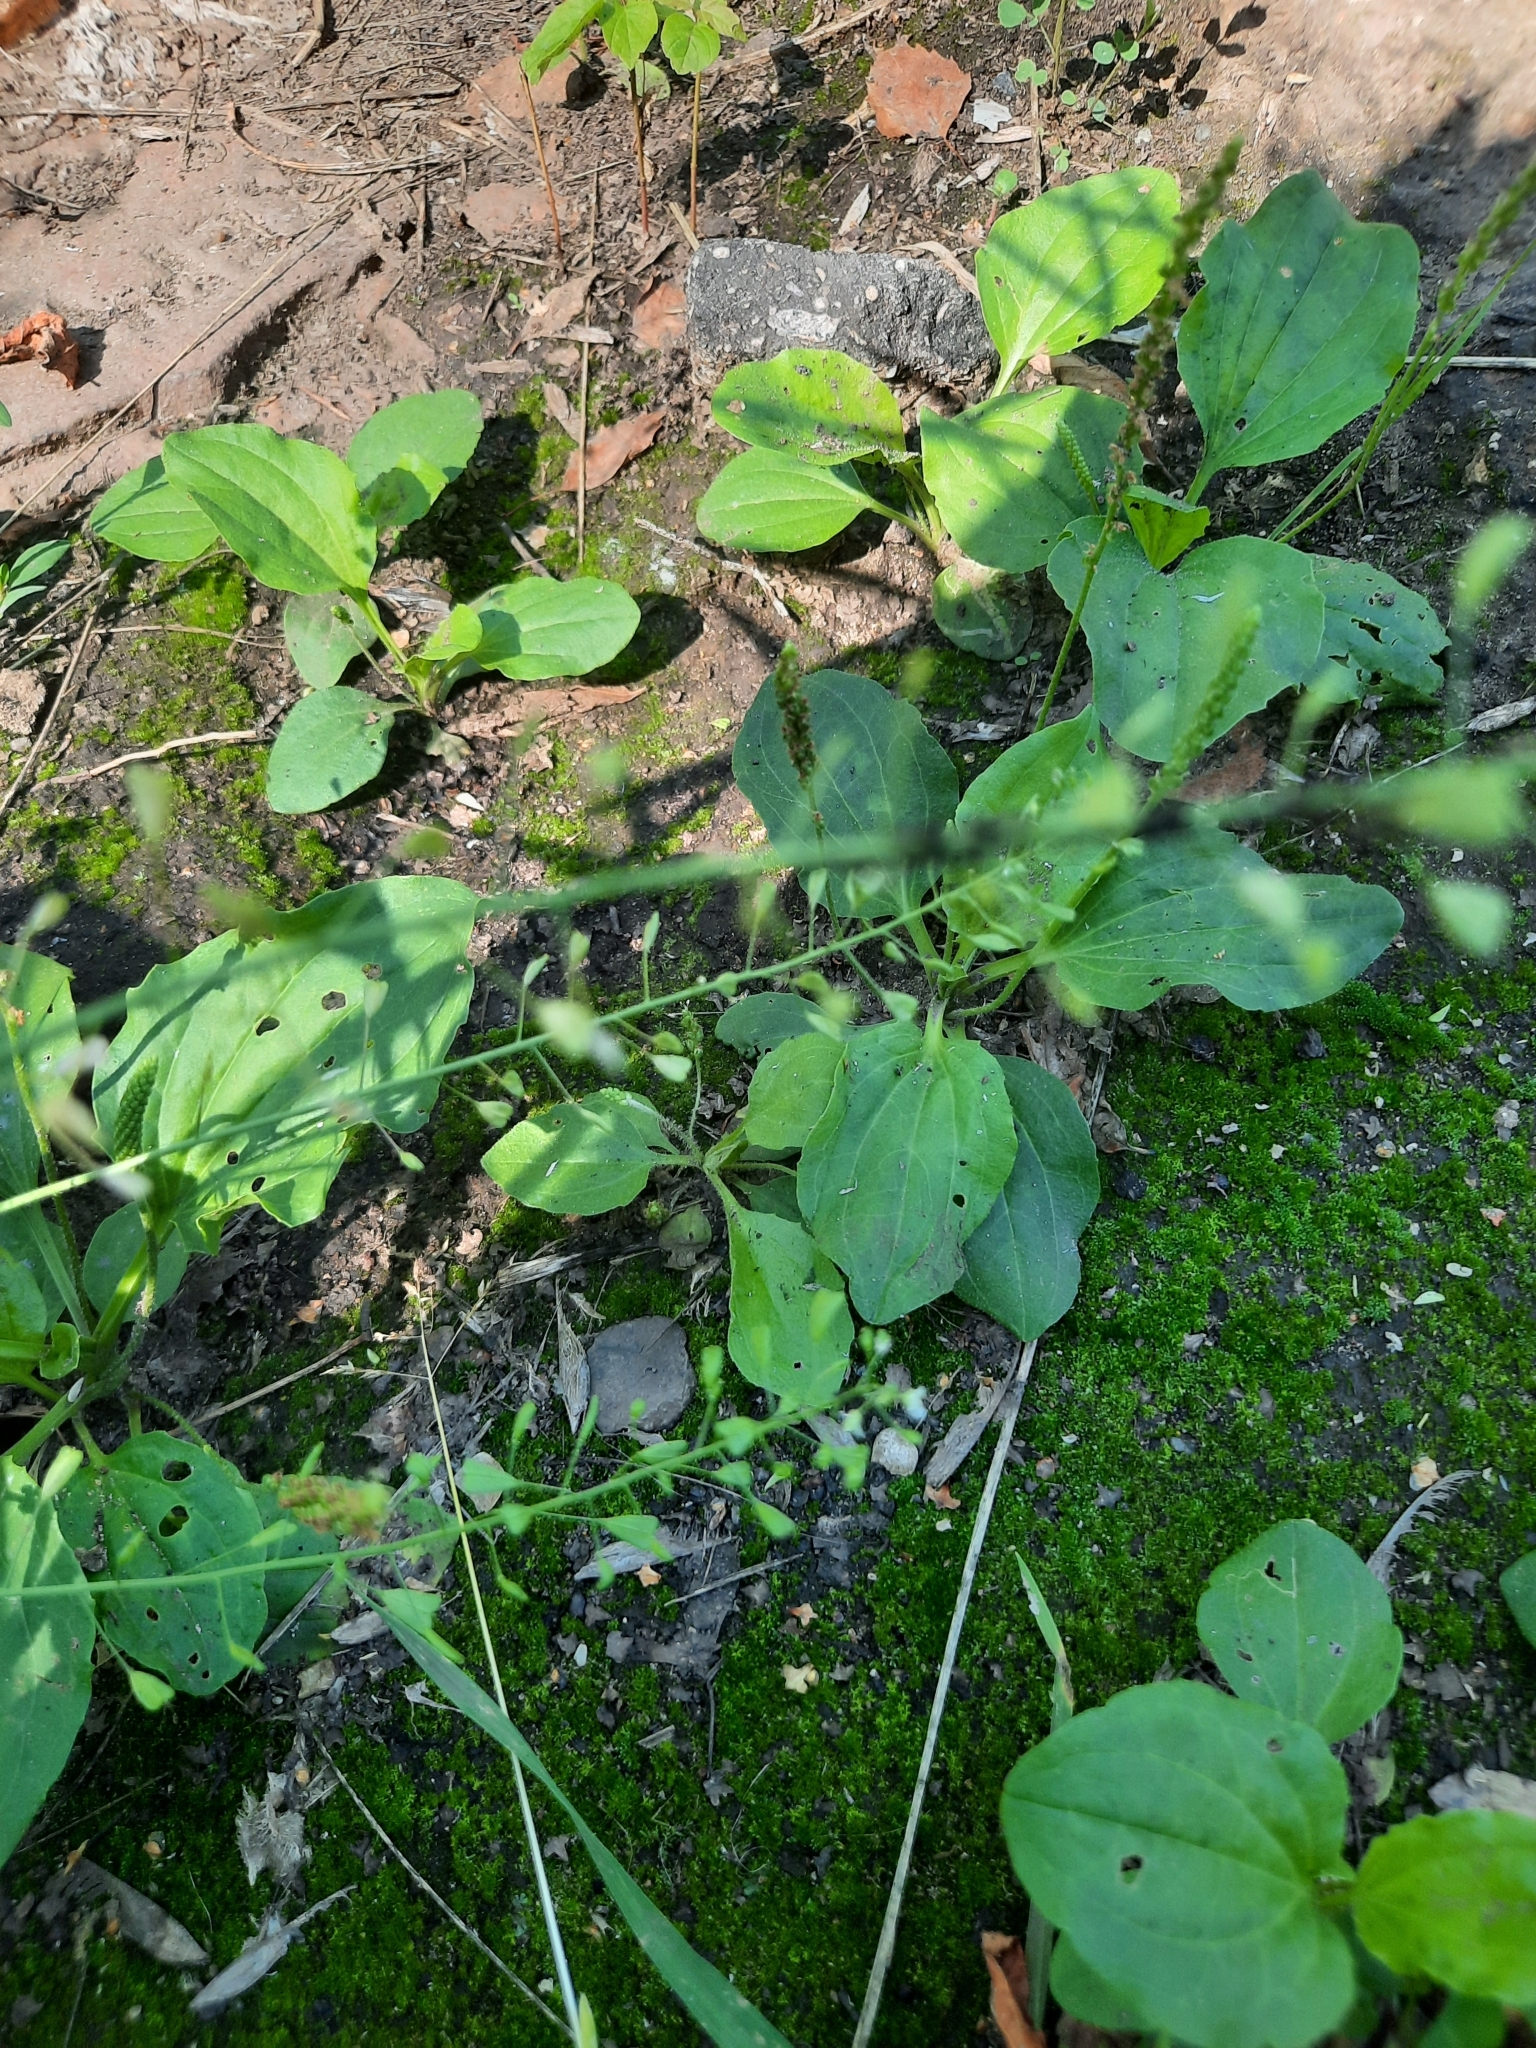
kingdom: Plantae
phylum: Tracheophyta
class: Magnoliopsida
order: Brassicales
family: Brassicaceae
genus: Capsella
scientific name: Capsella bursa-pastoris
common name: Shepherd's purse
